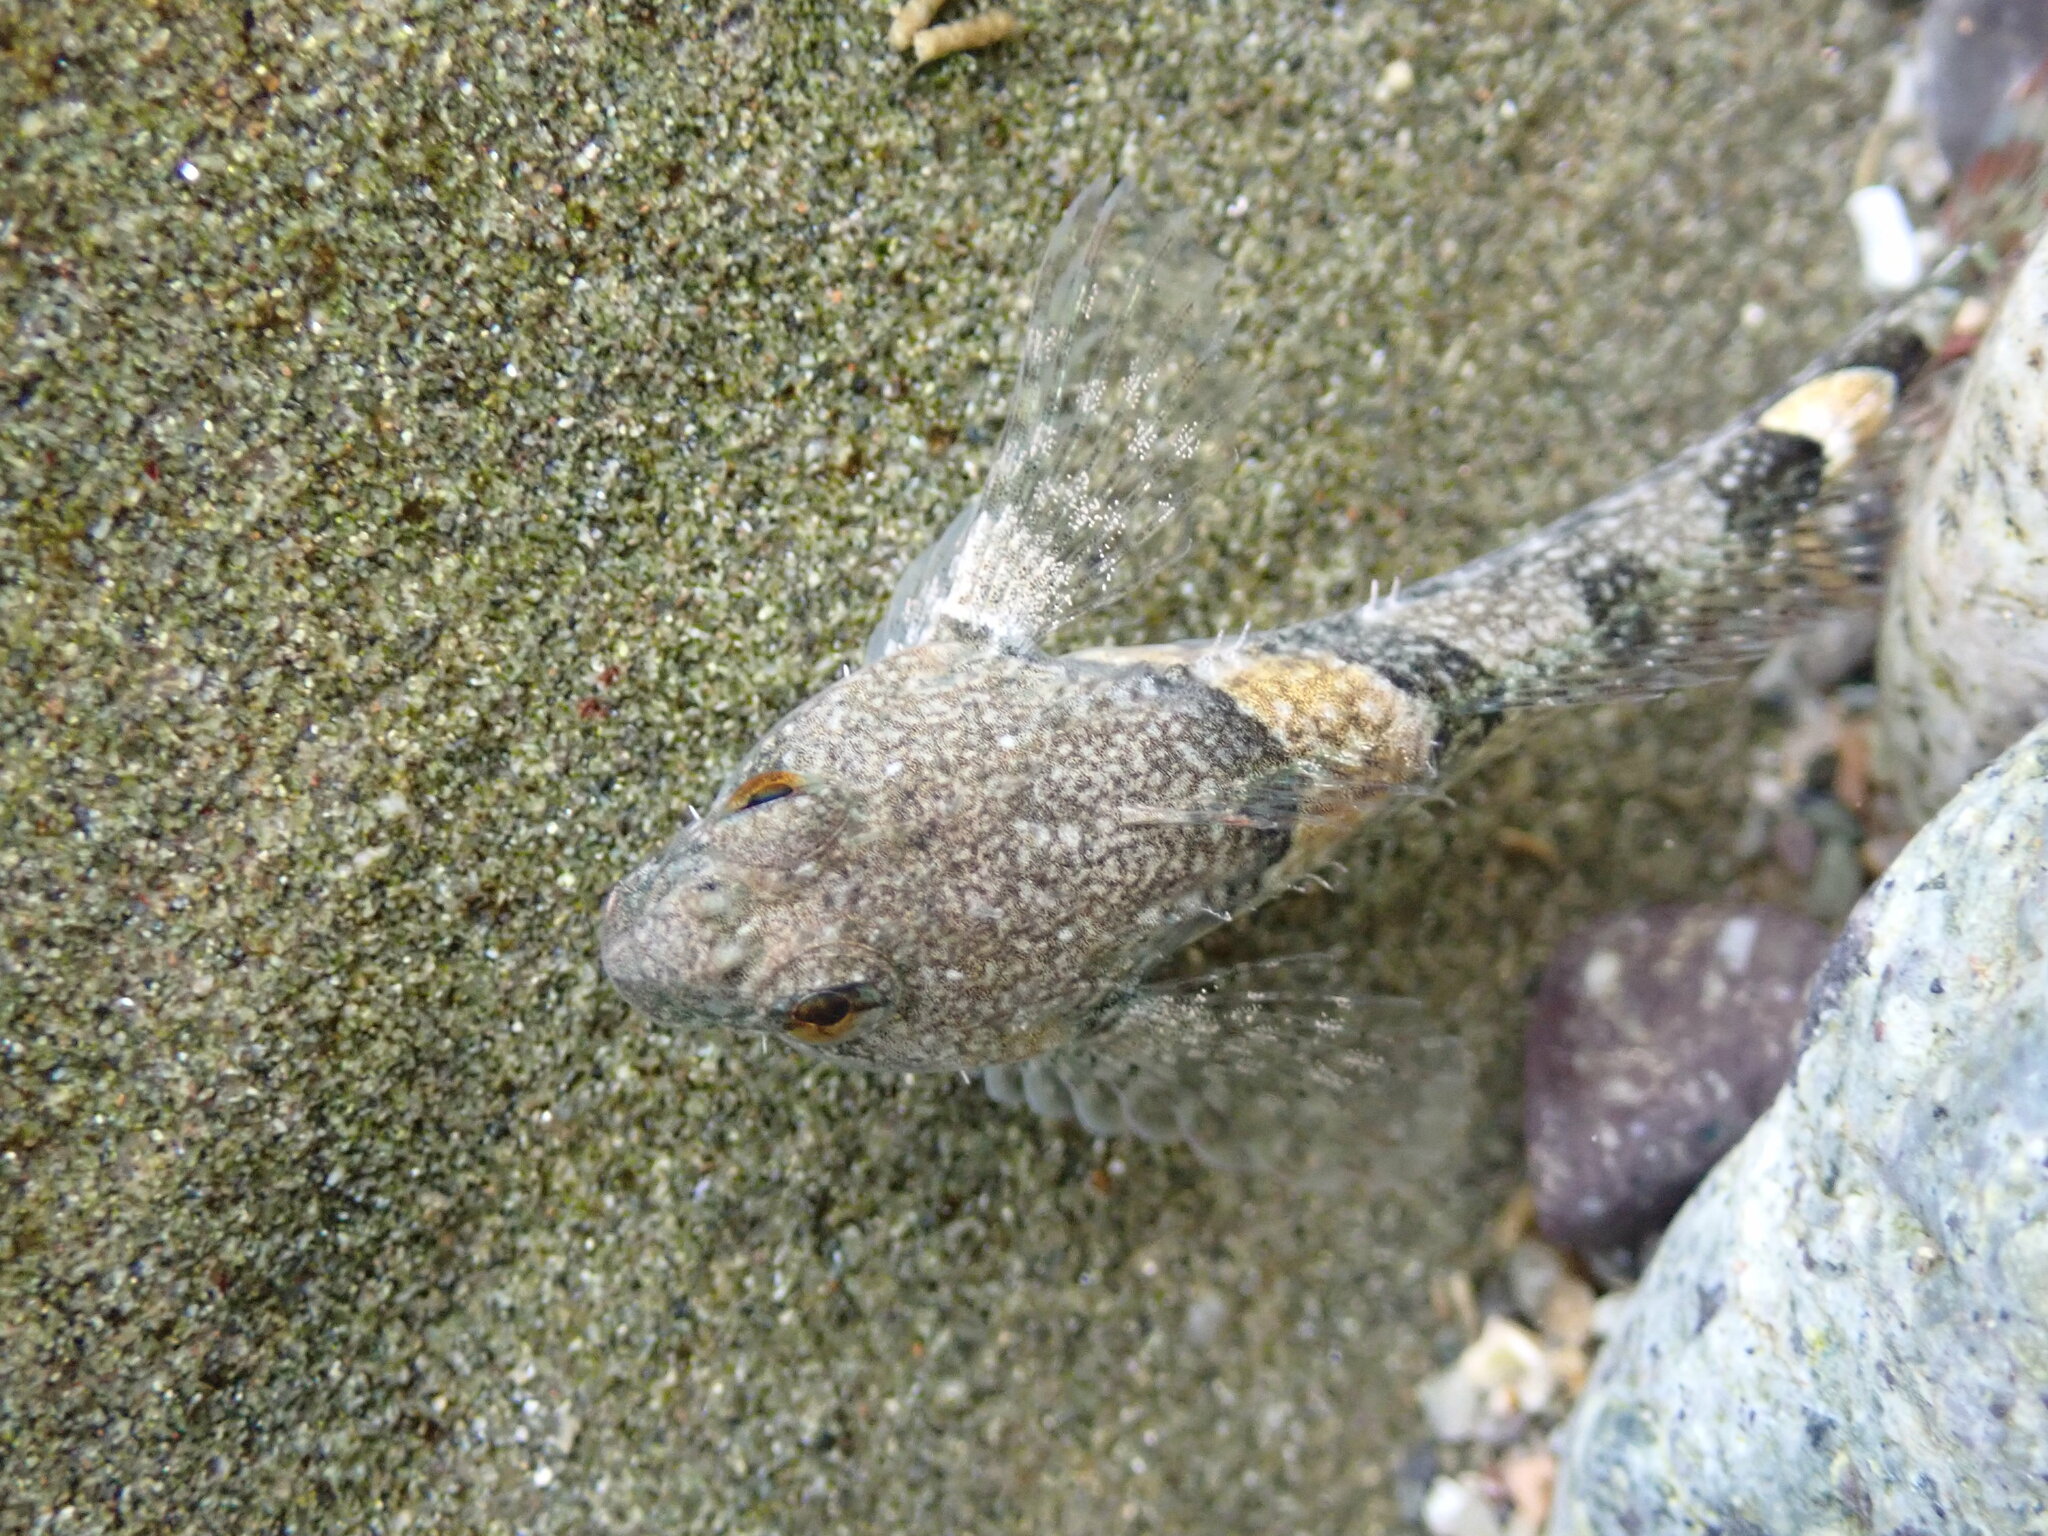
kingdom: Animalia
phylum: Chordata
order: Scorpaeniformes
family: Cottidae
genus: Oligocottus
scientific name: Oligocottus maculosus
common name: Tidepool sculpin
